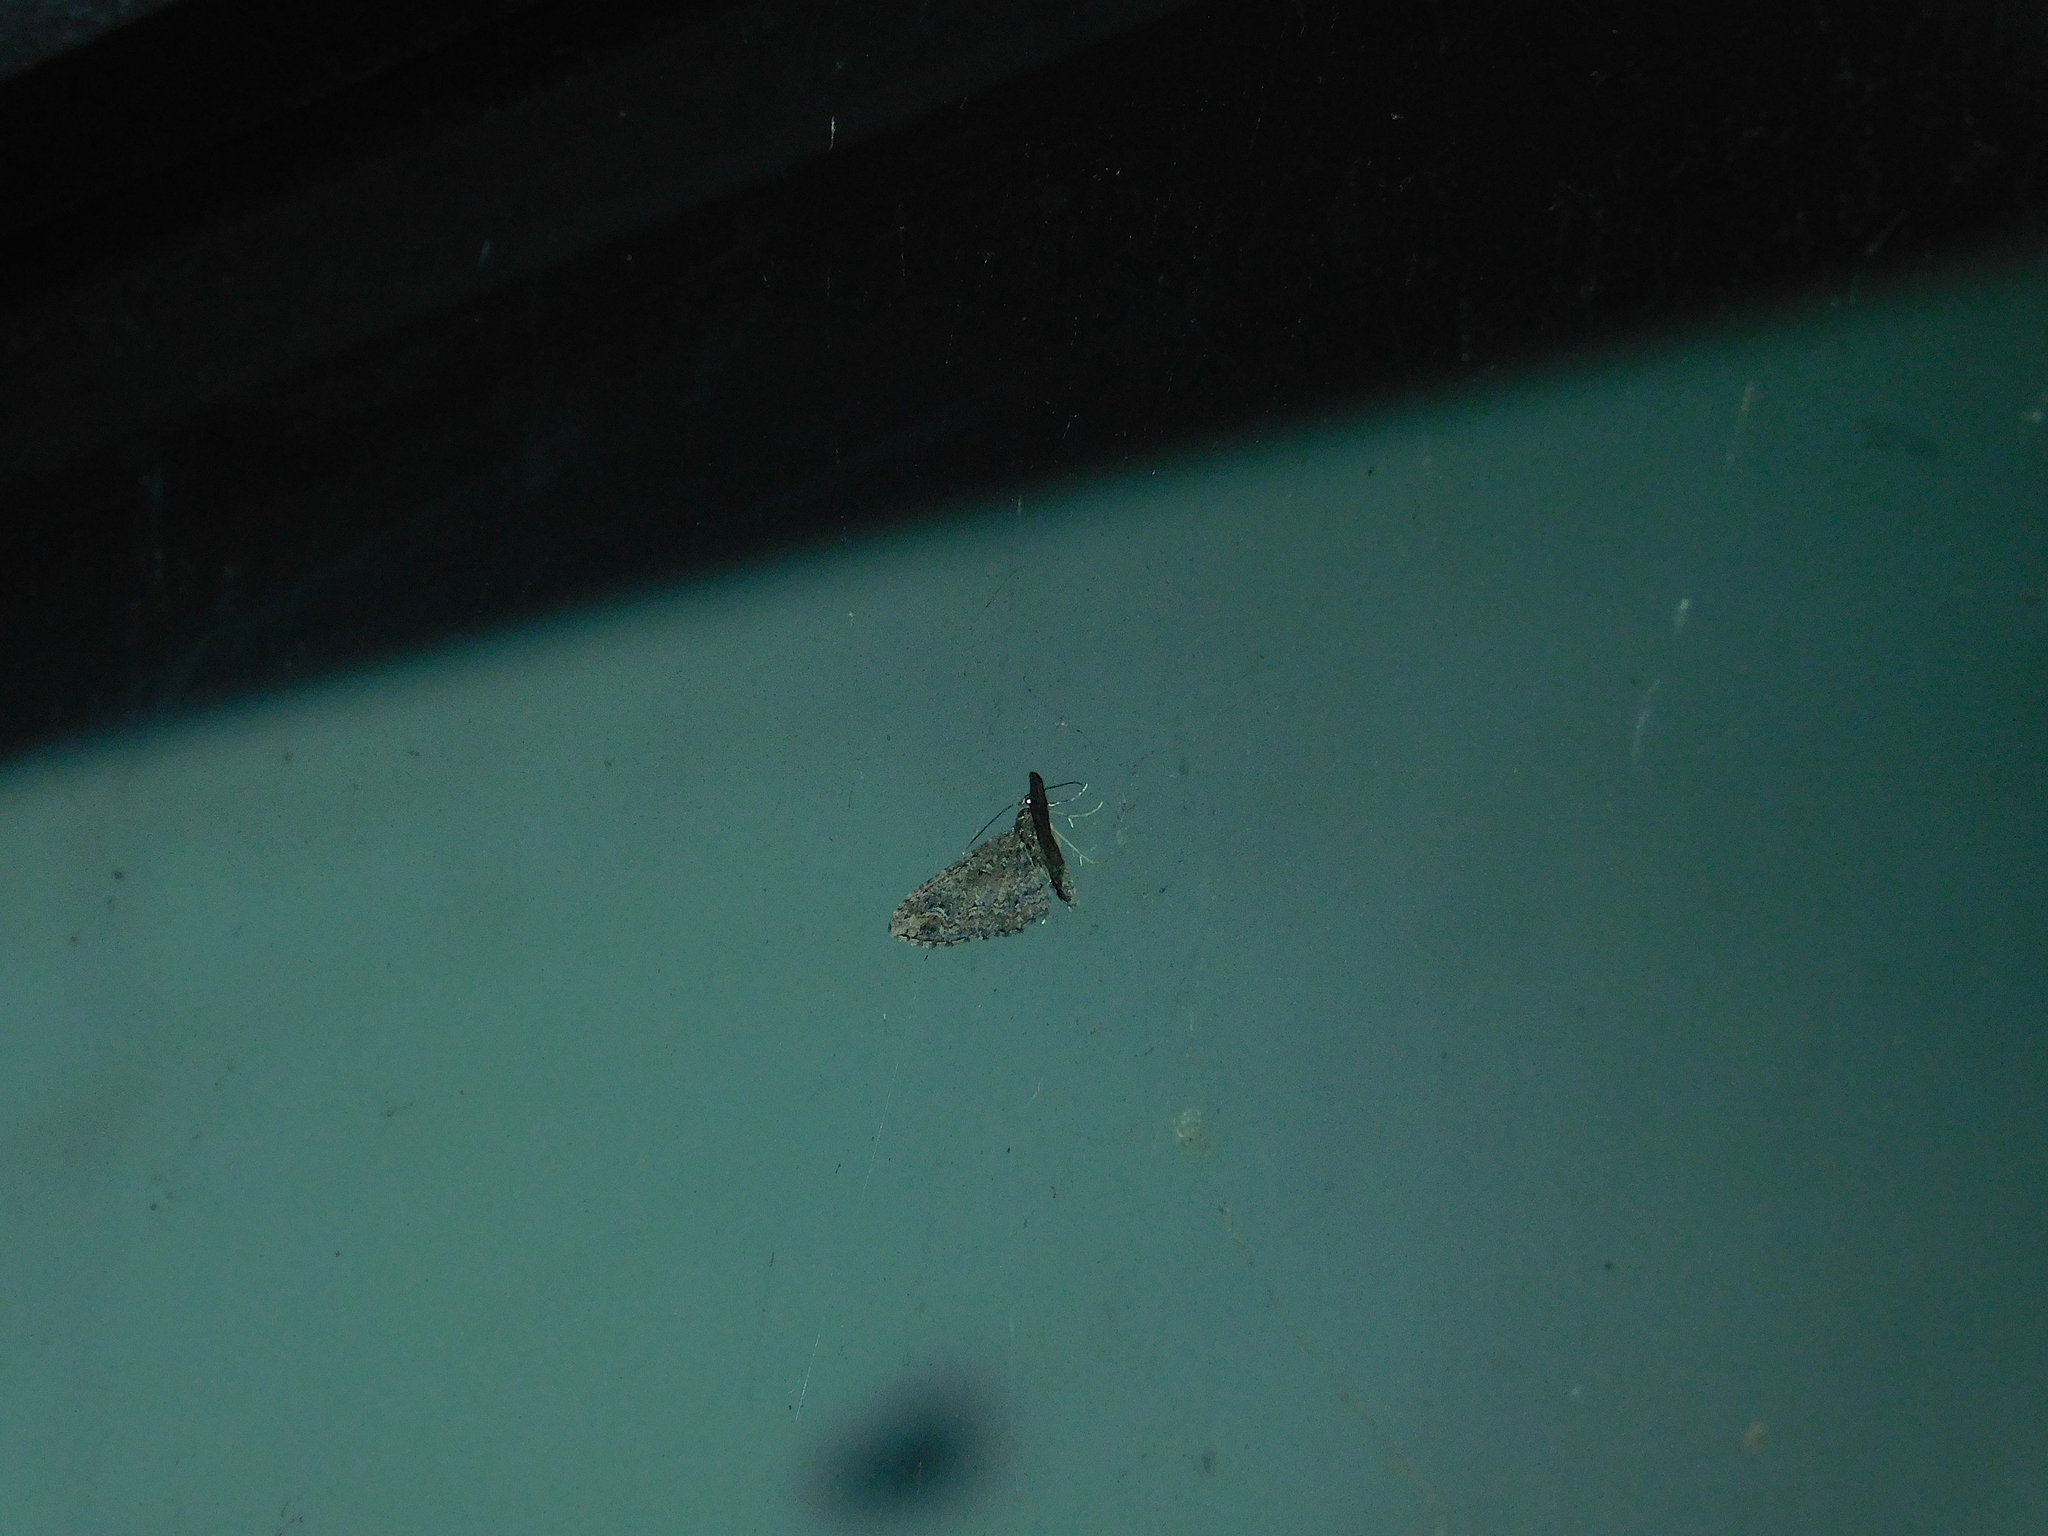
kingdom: Animalia
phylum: Arthropoda
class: Insecta
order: Lepidoptera
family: Geometridae
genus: Pasiphilodes
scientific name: Pasiphilodes testulata
